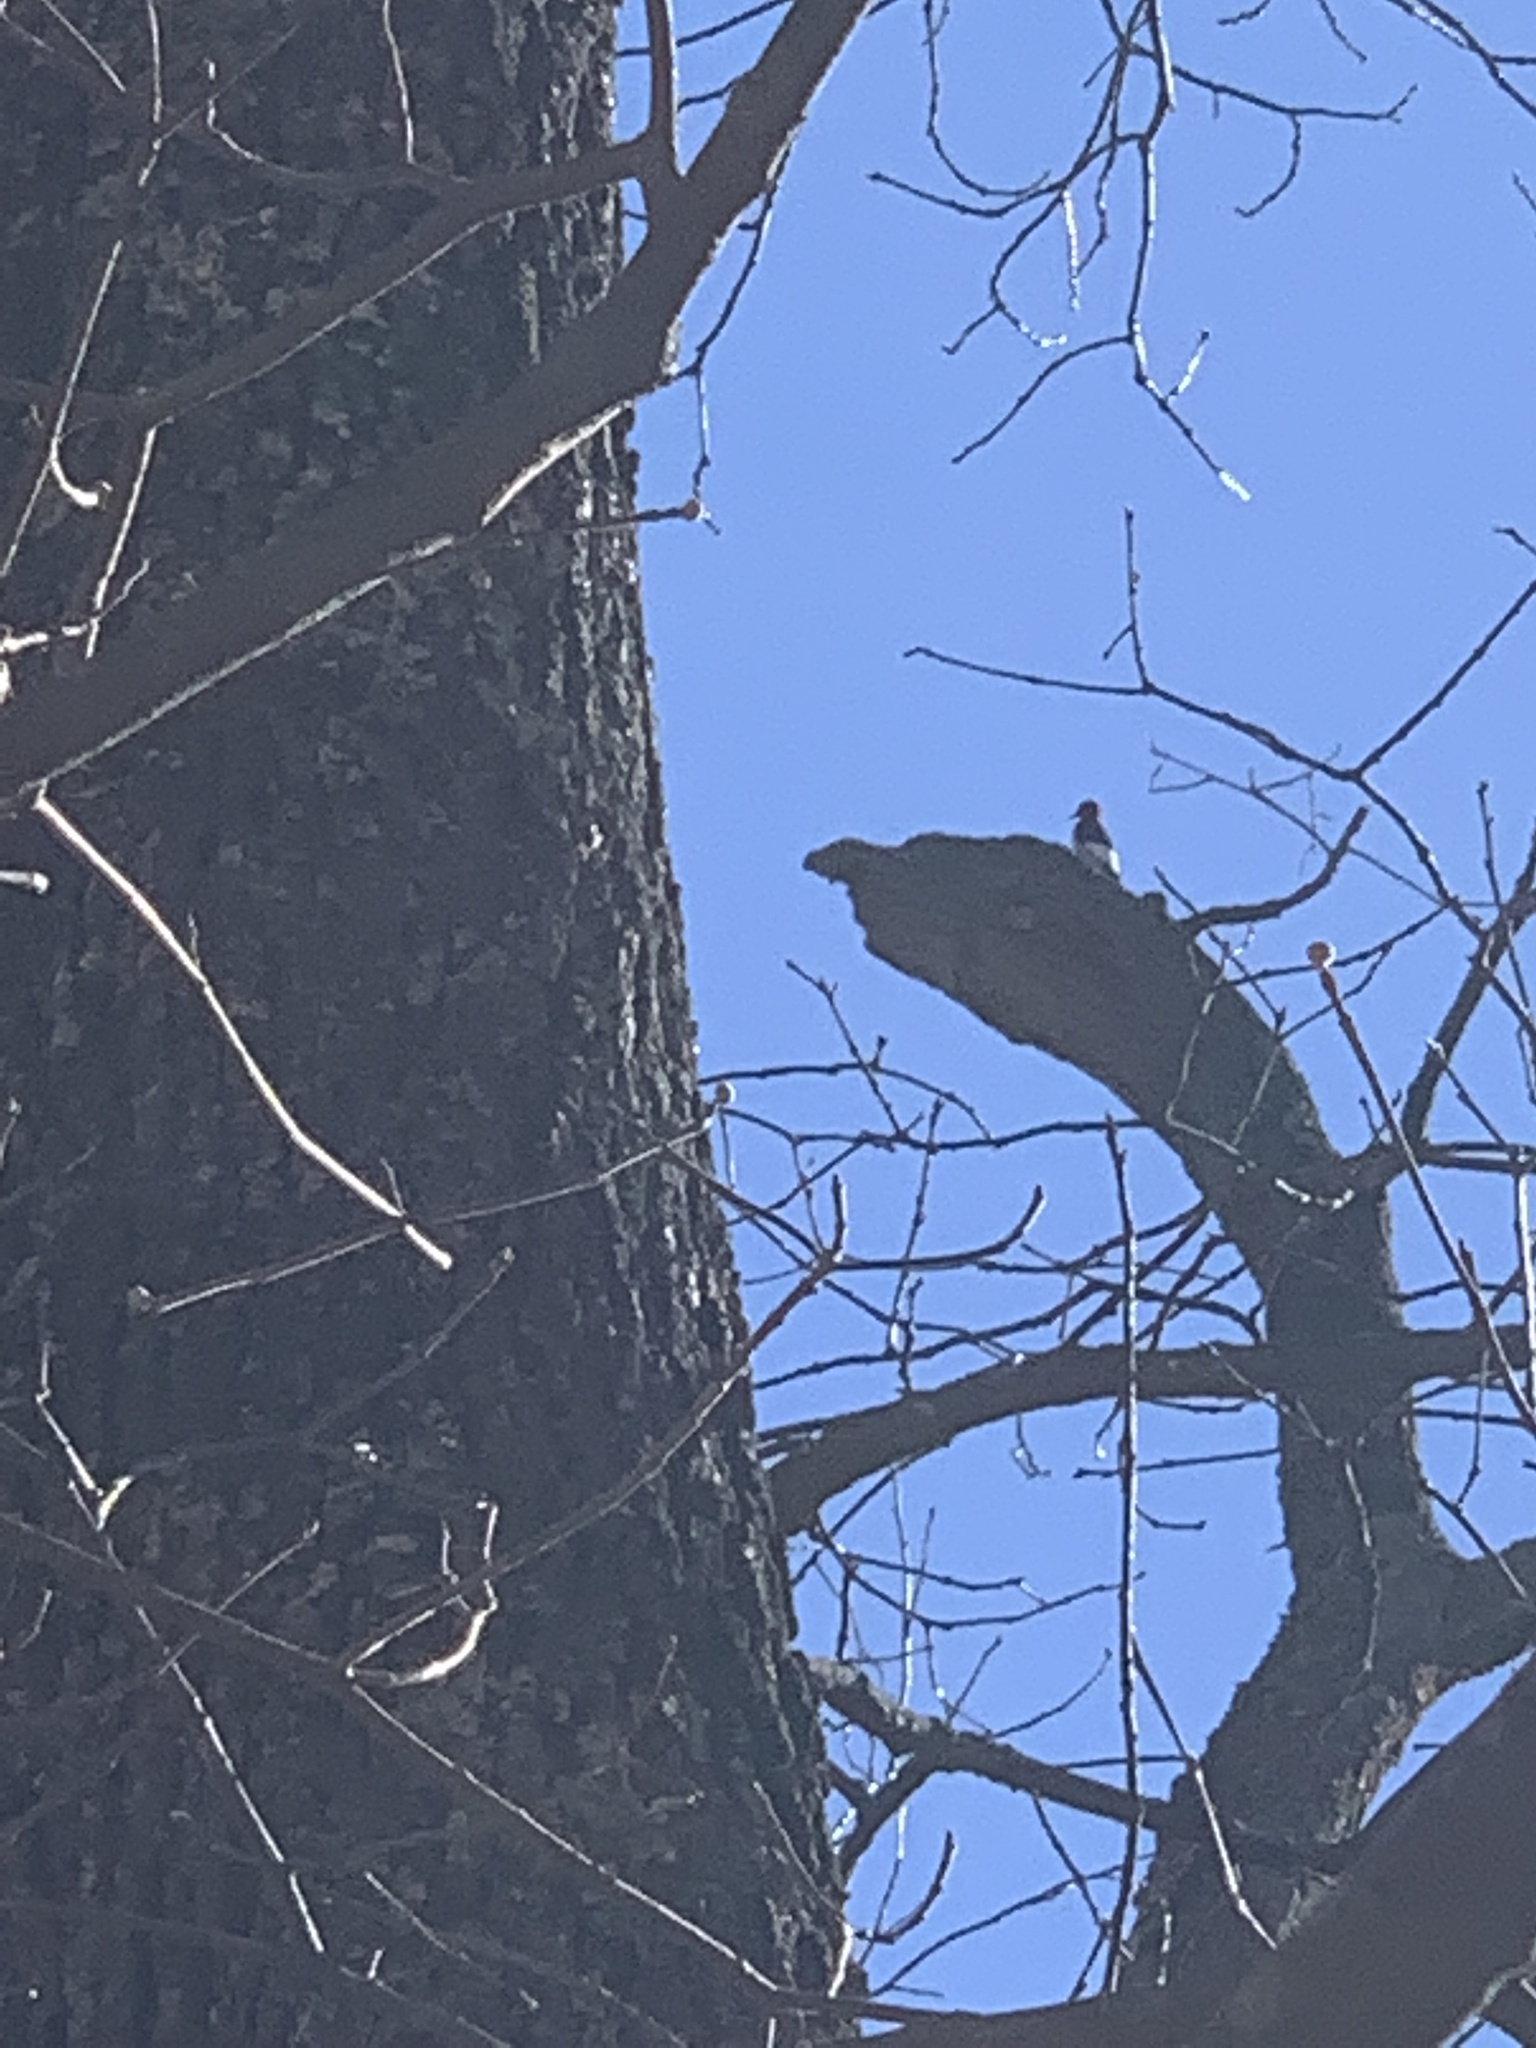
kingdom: Animalia
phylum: Chordata
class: Aves
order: Piciformes
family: Picidae
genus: Melanerpes
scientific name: Melanerpes erythrocephalus
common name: Red-headed woodpecker
